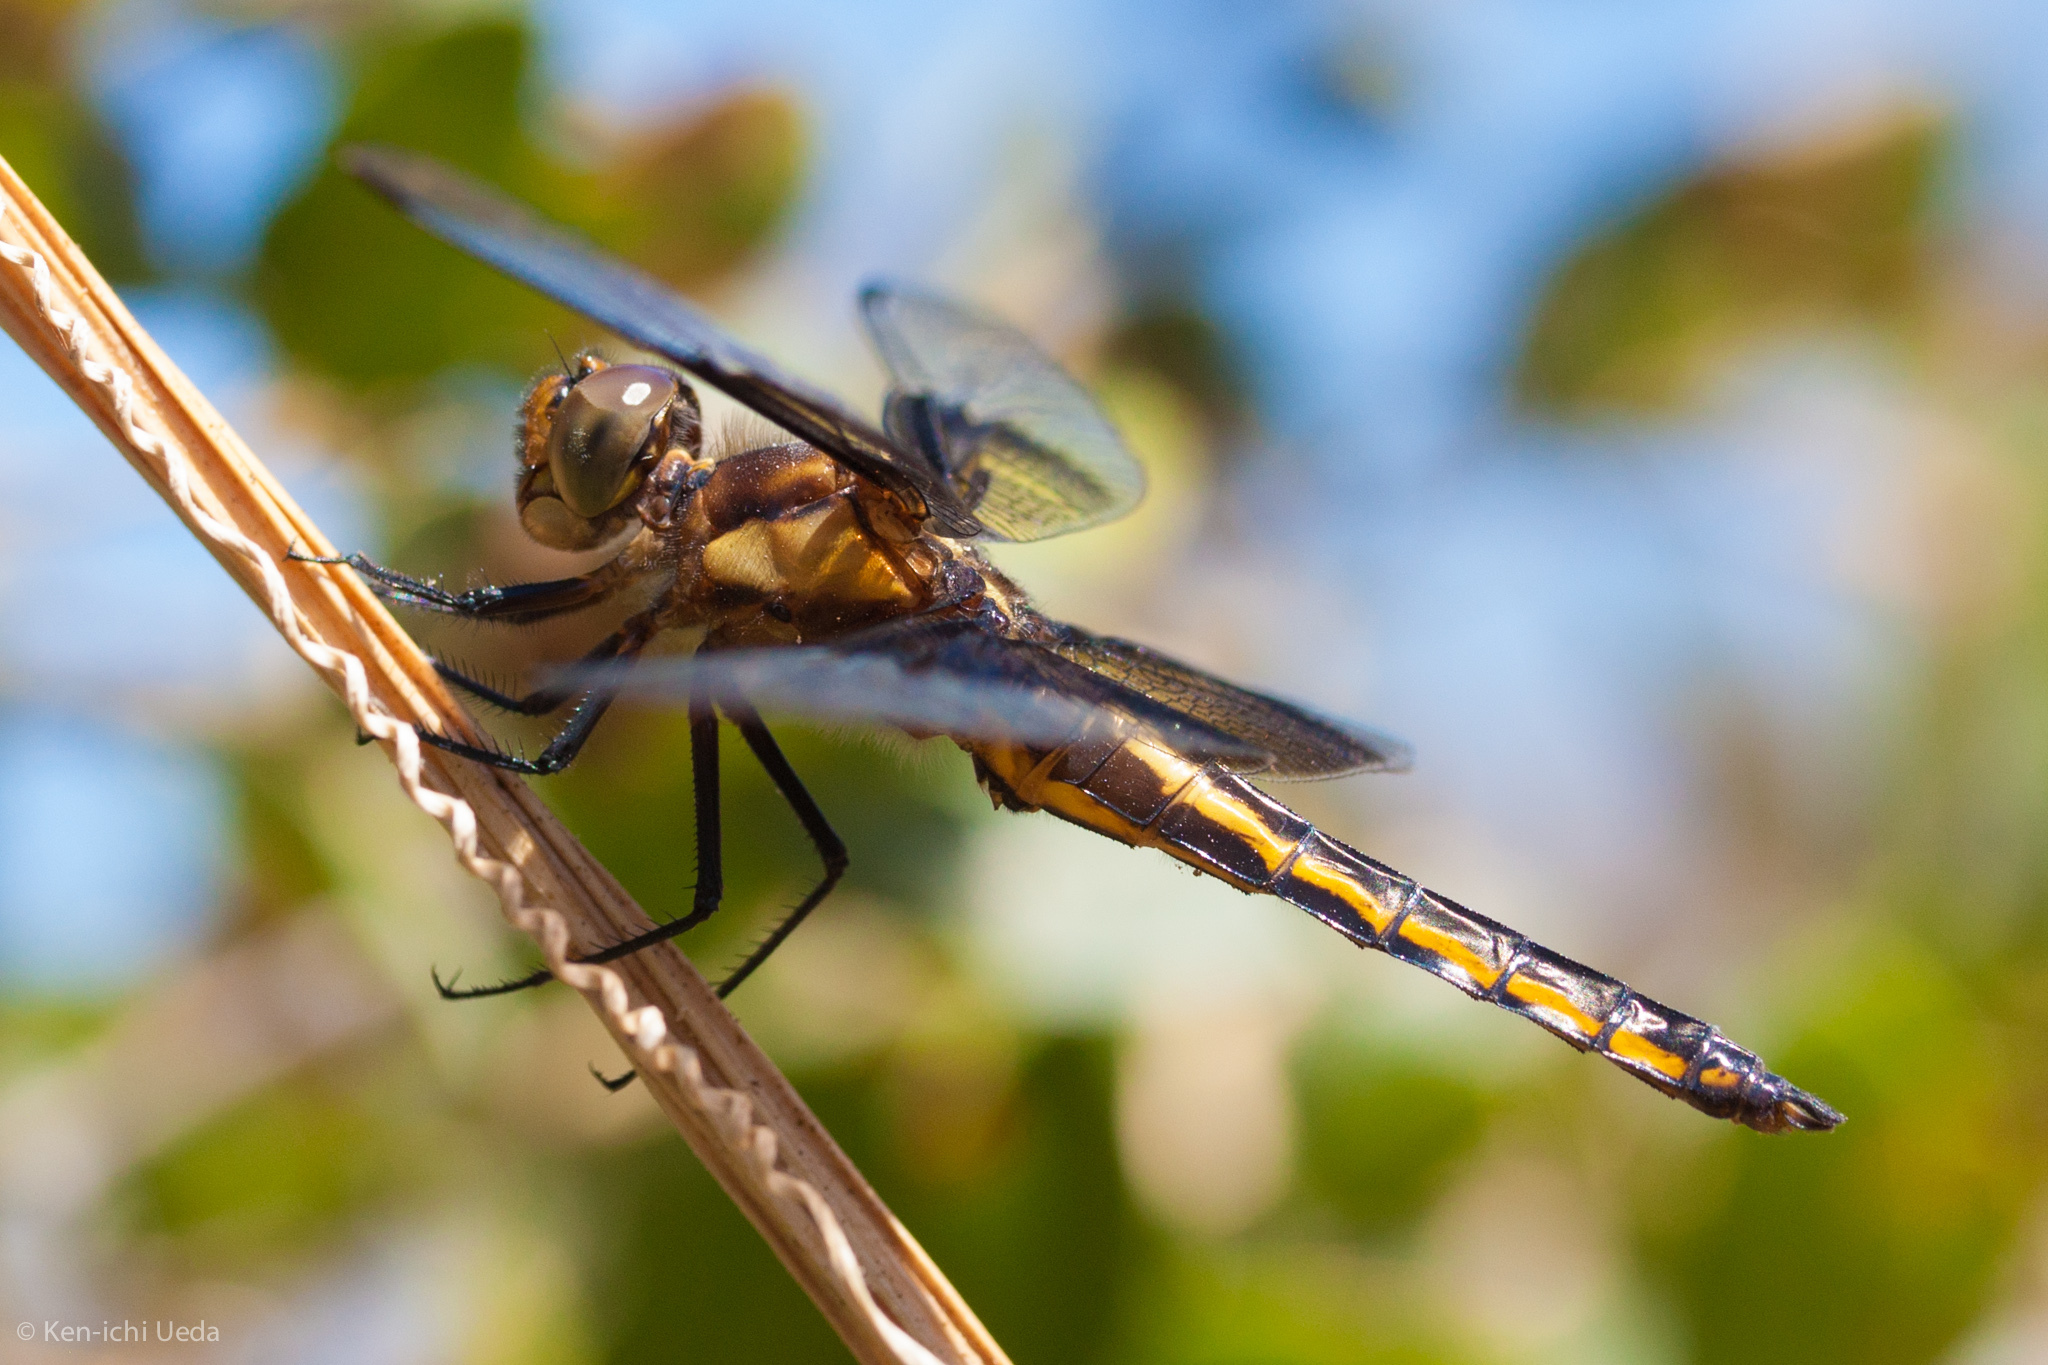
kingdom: Animalia
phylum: Arthropoda
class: Insecta
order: Odonata
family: Libellulidae
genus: Libellula
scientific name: Libellula luctuosa
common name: Widow skimmer
